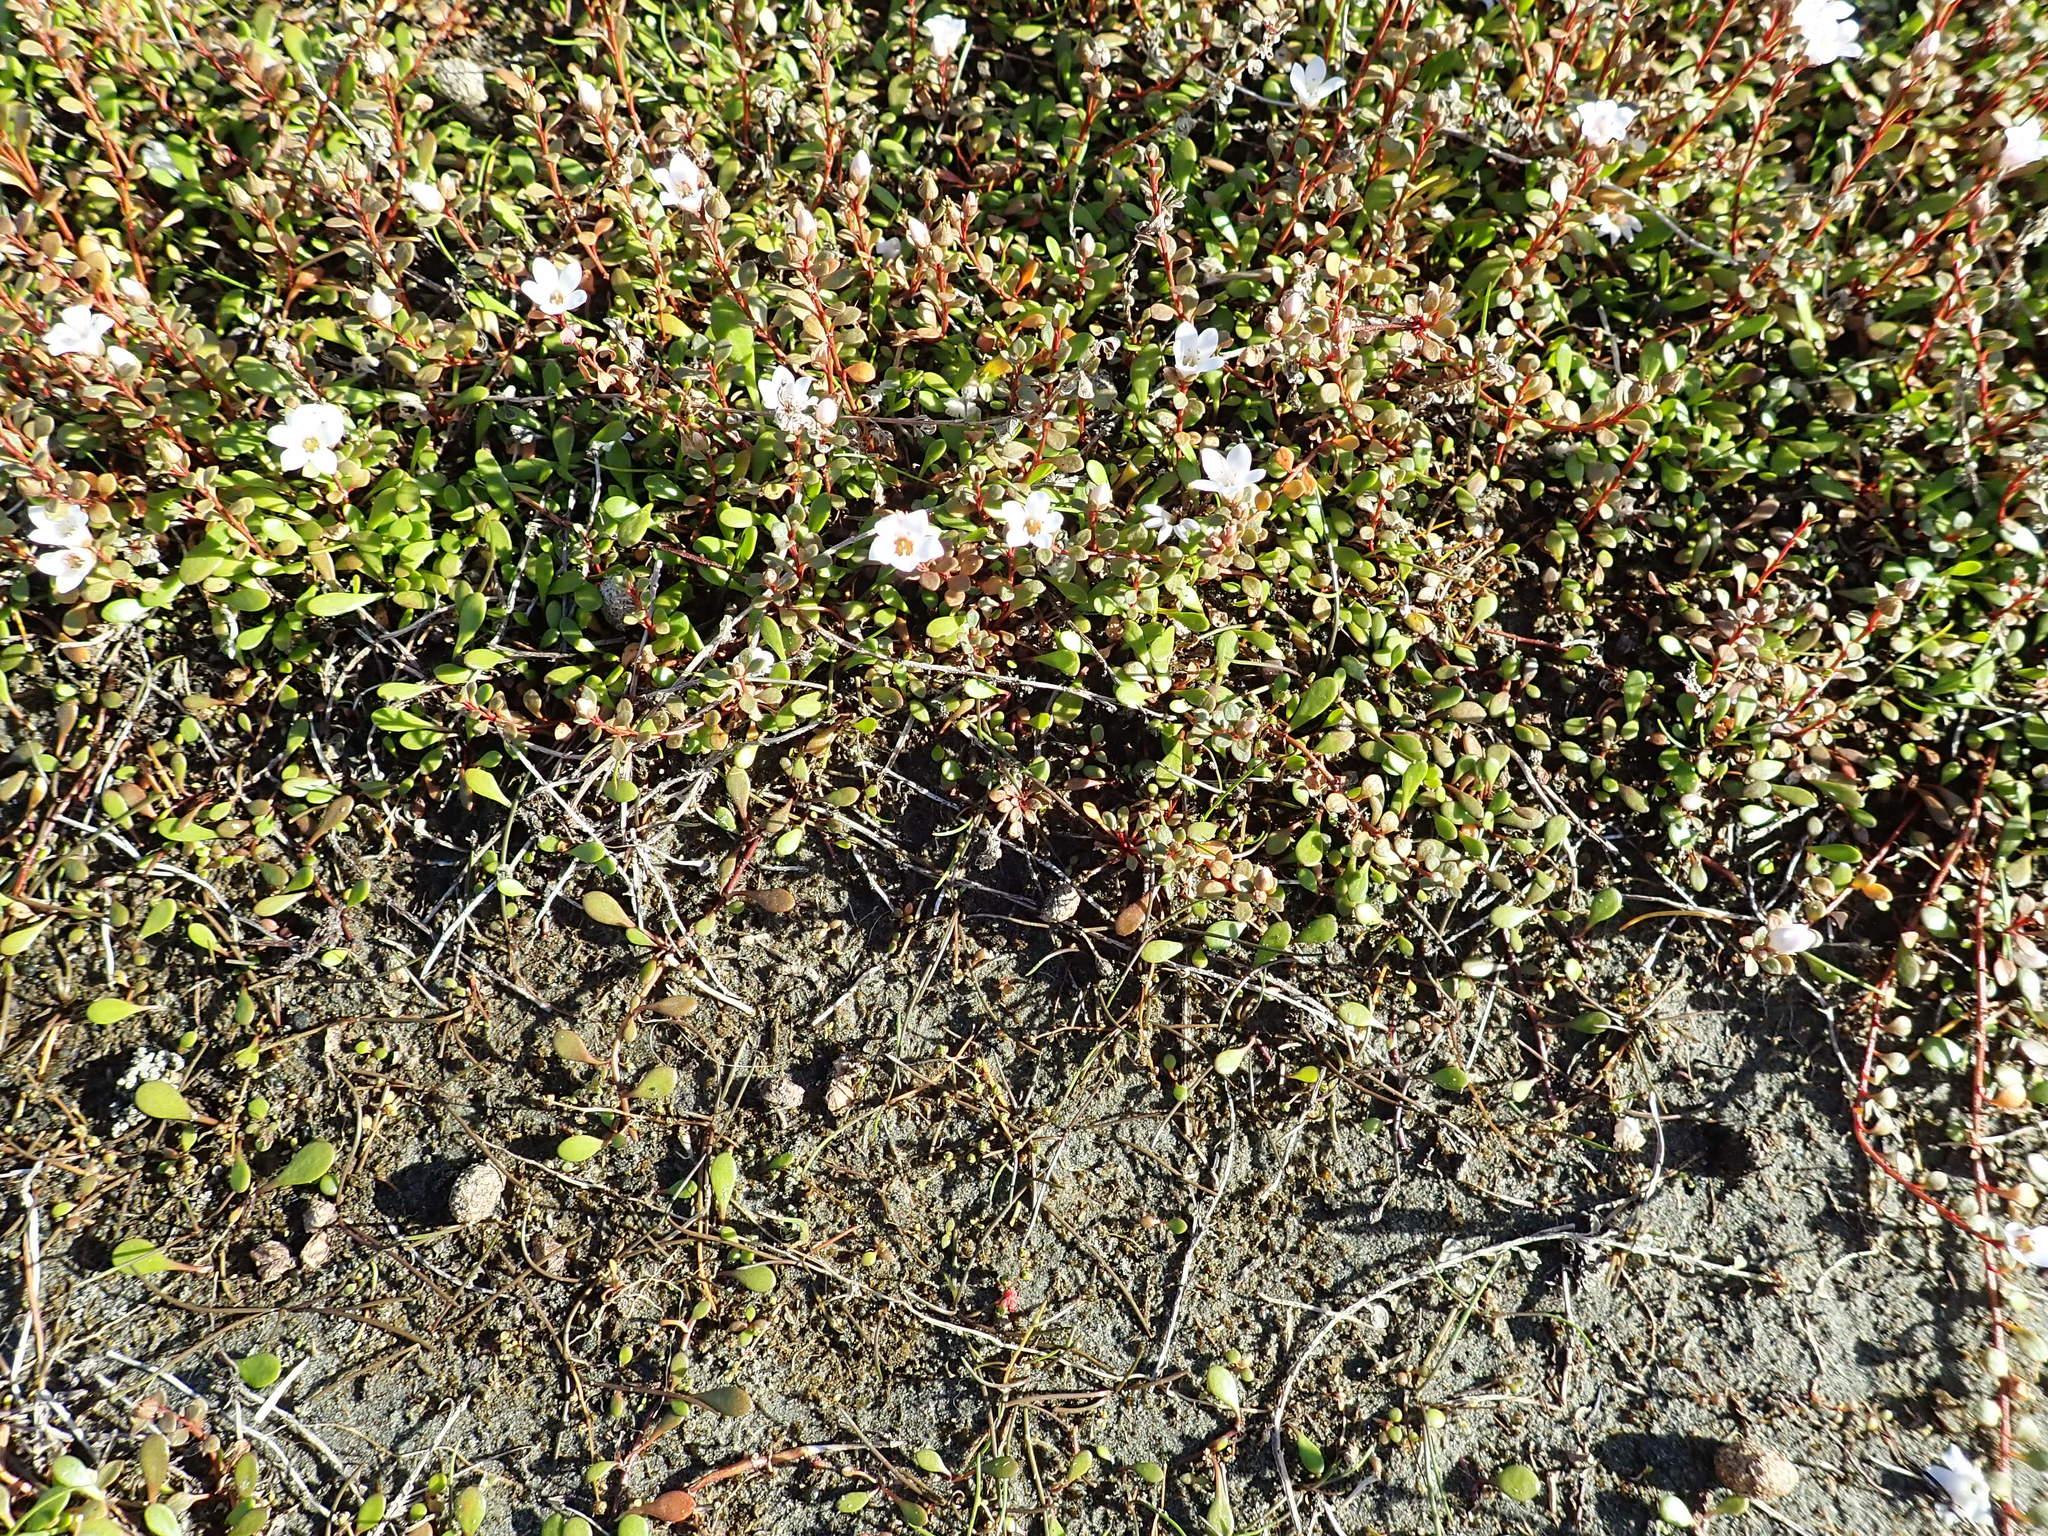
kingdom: Plantae
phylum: Tracheophyta
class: Magnoliopsida
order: Ericales
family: Primulaceae
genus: Samolus
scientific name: Samolus repens
